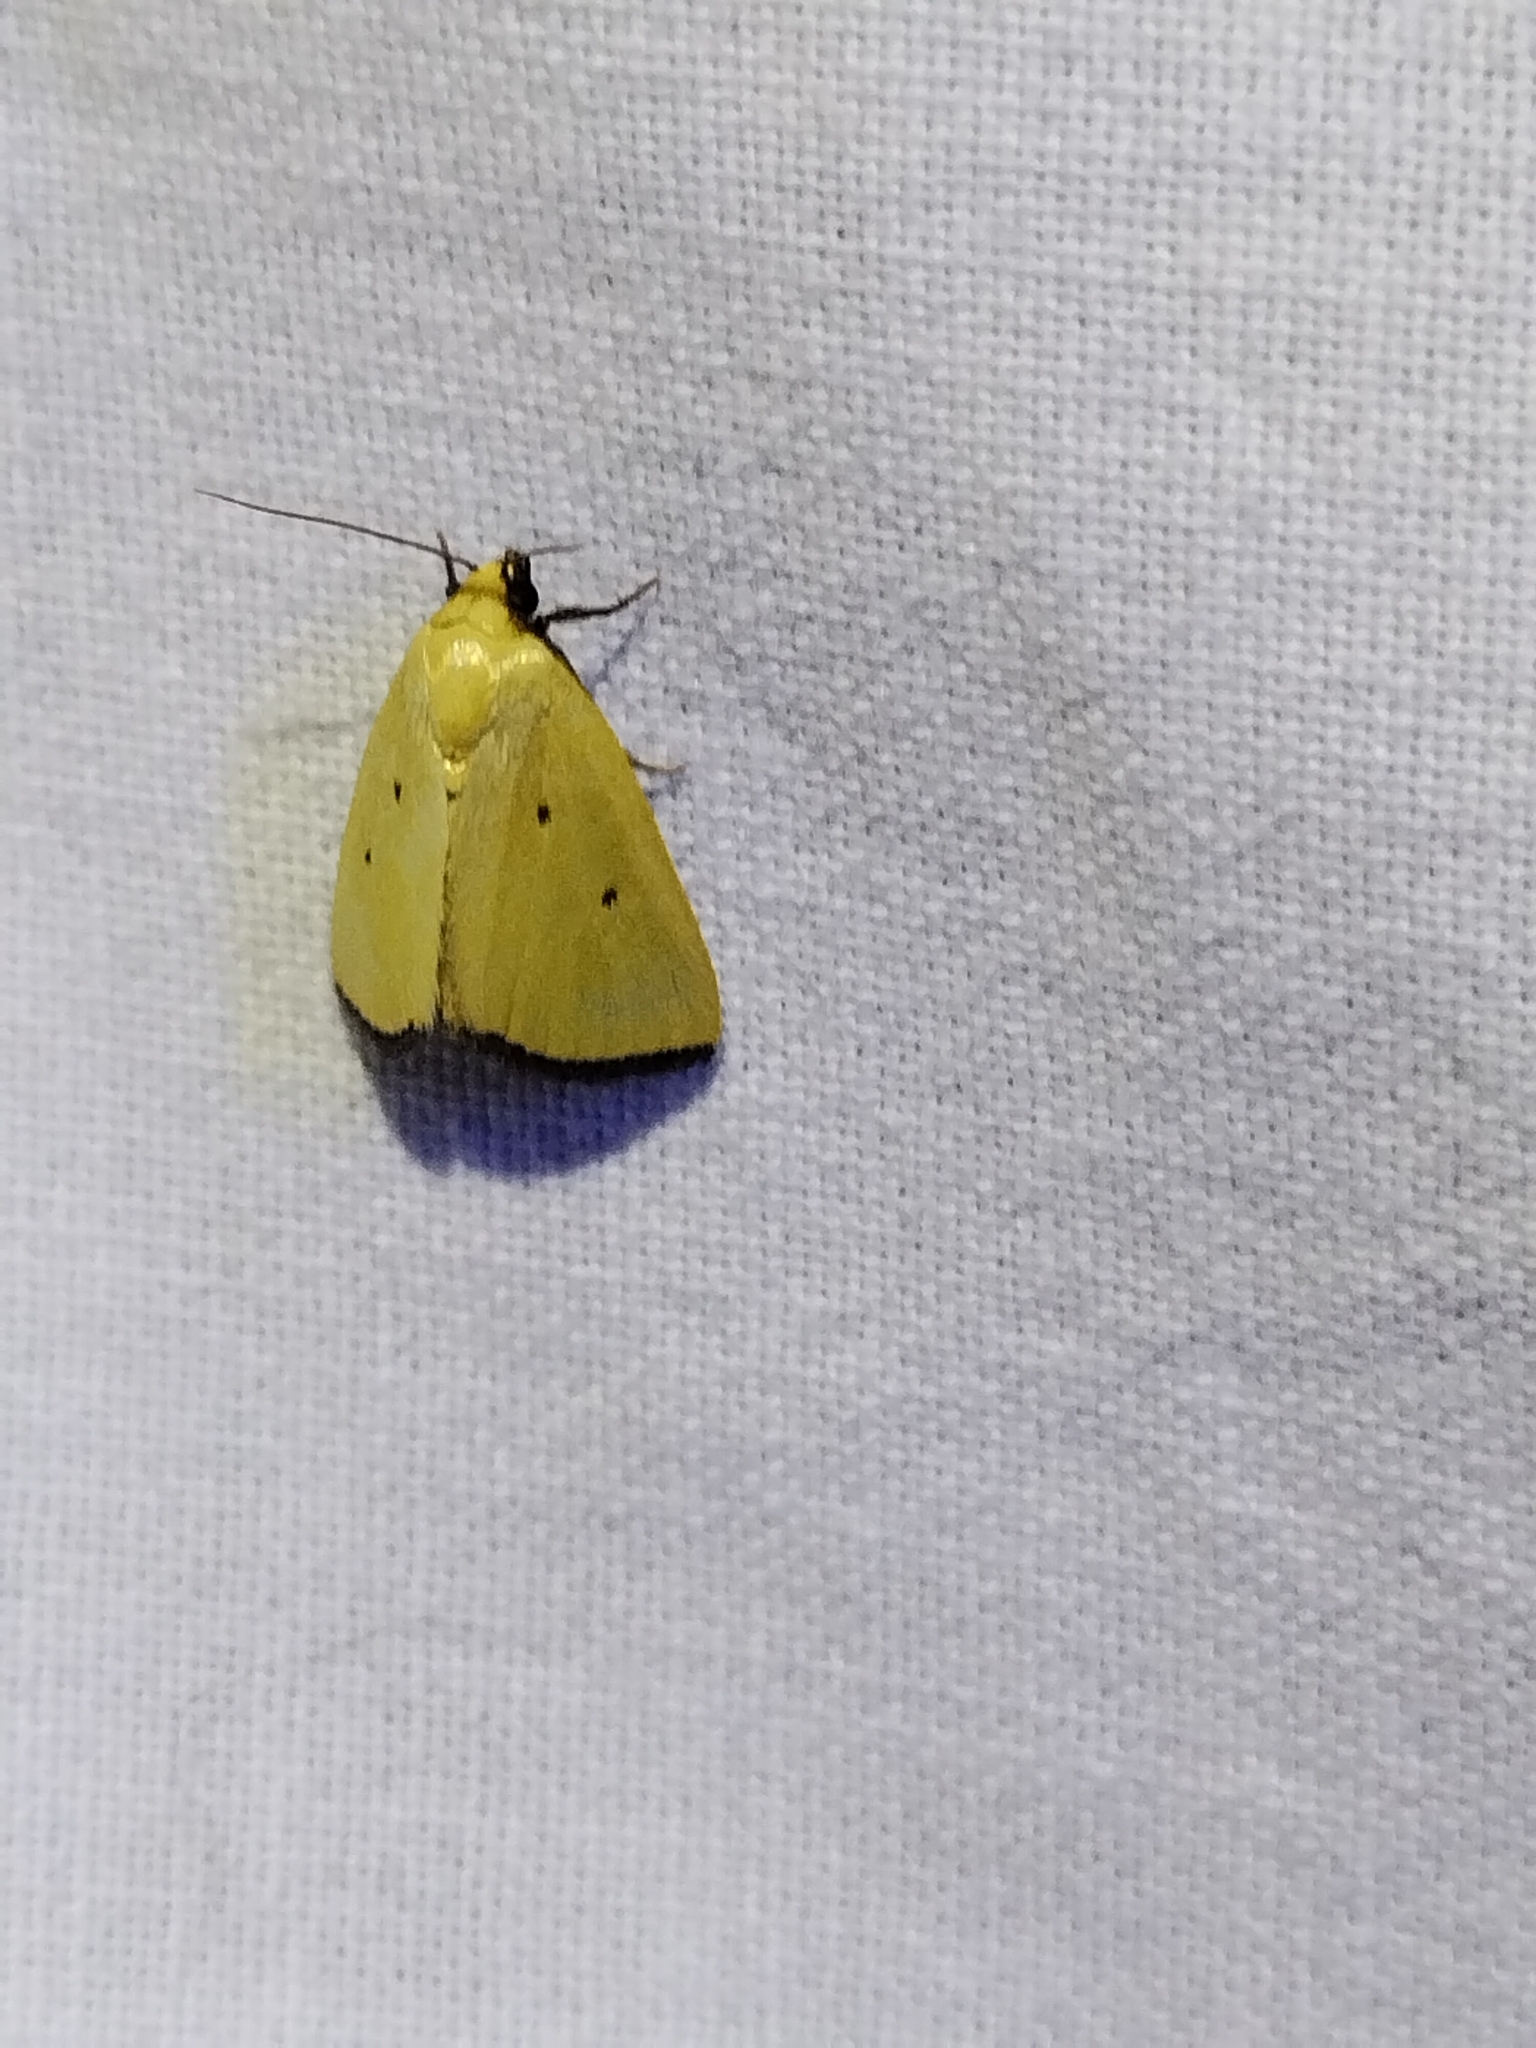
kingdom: Animalia
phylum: Arthropoda
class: Insecta
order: Lepidoptera
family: Noctuidae
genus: Marimatha
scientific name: Marimatha nigrofimbria
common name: Black-bordered lemon moth
